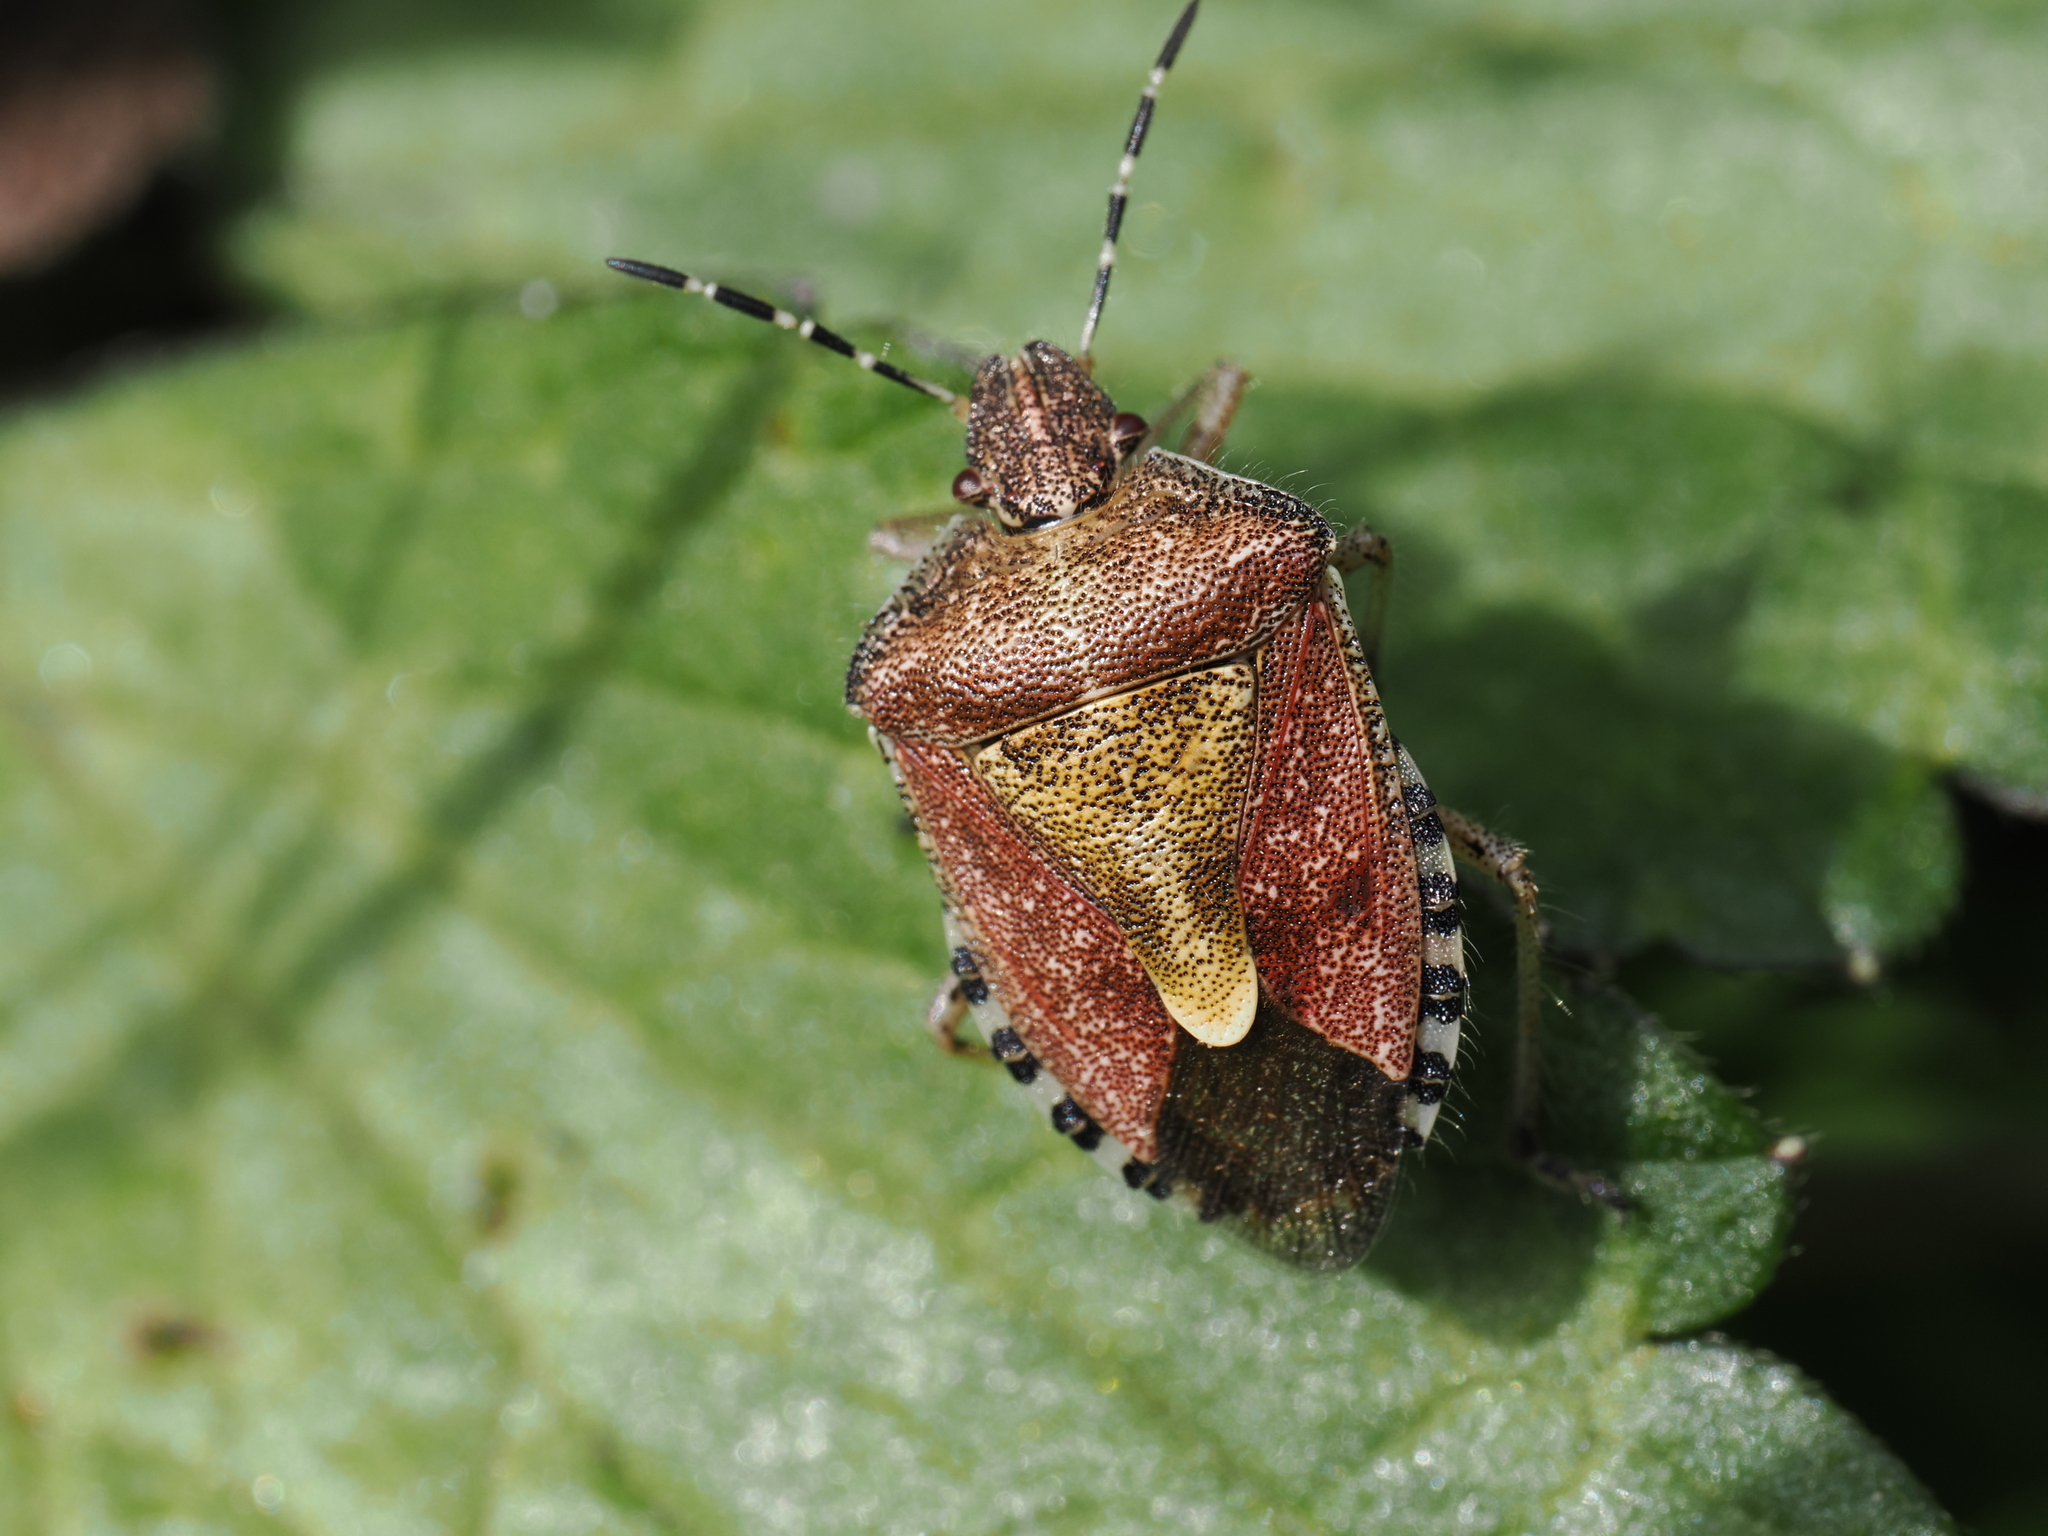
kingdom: Animalia
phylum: Arthropoda
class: Insecta
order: Hemiptera
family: Pentatomidae
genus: Dolycoris
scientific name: Dolycoris baccarum
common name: Sloe bug
